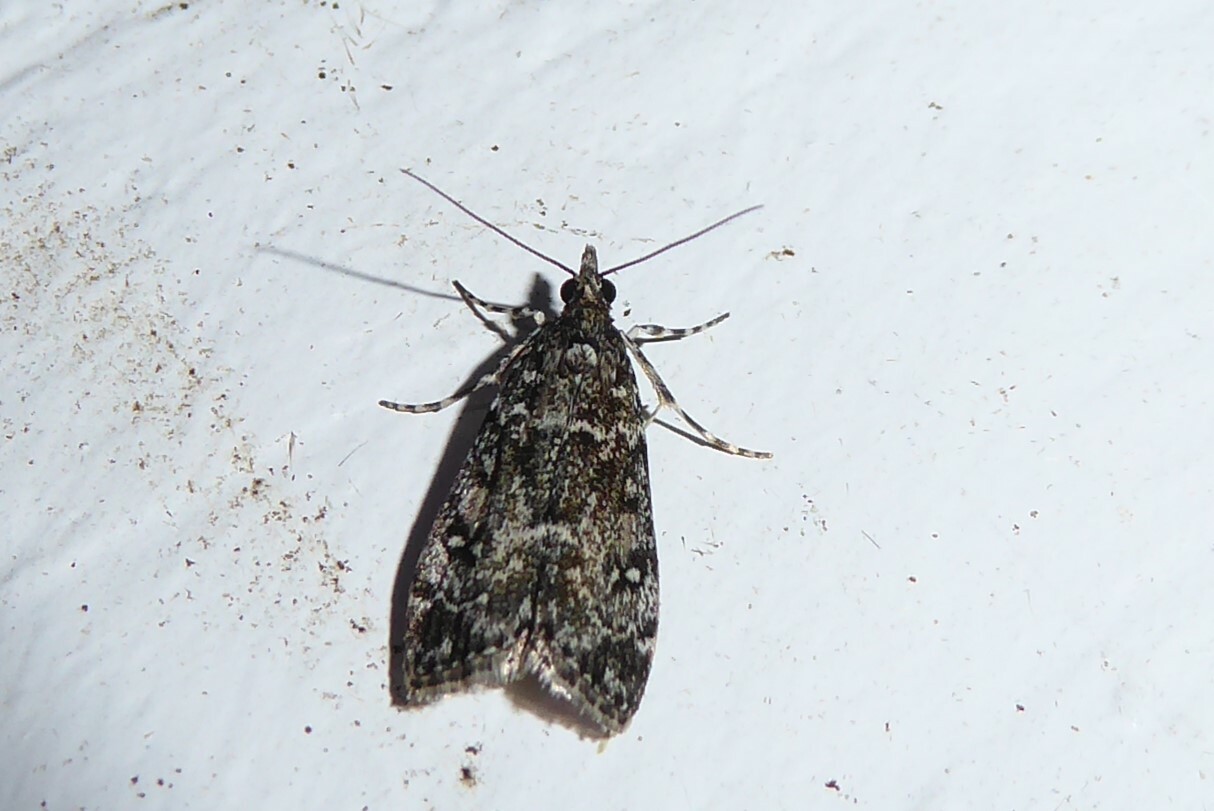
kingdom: Animalia
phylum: Arthropoda
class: Insecta
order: Lepidoptera
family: Crambidae
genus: Eudonia
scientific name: Eudonia philerga
